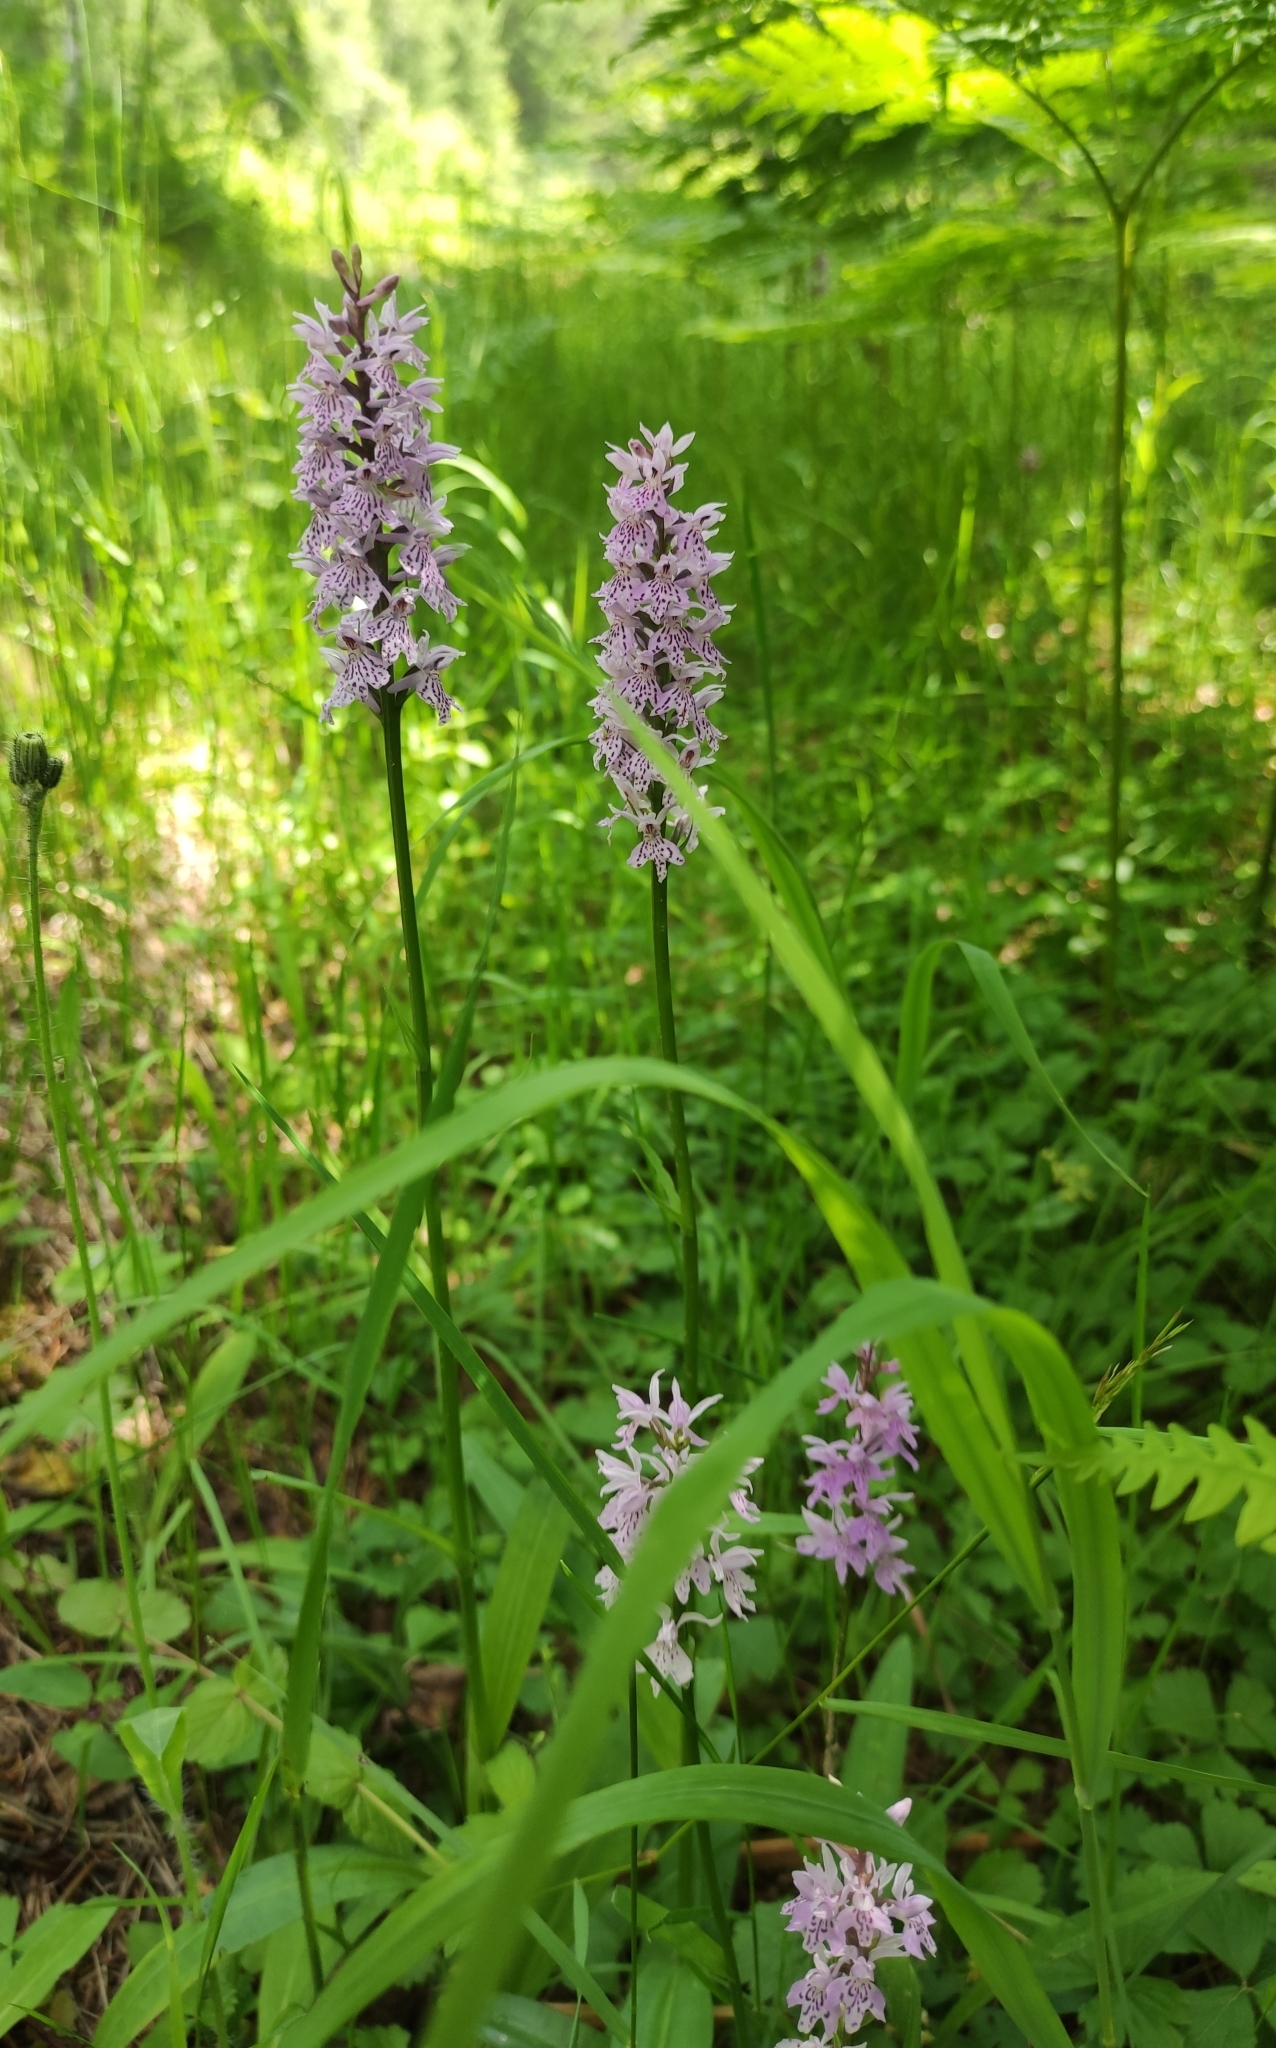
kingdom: Plantae
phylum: Tracheophyta
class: Liliopsida
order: Asparagales
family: Orchidaceae
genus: Dactylorhiza
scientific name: Dactylorhiza maculata
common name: Heath spotted-orchid
